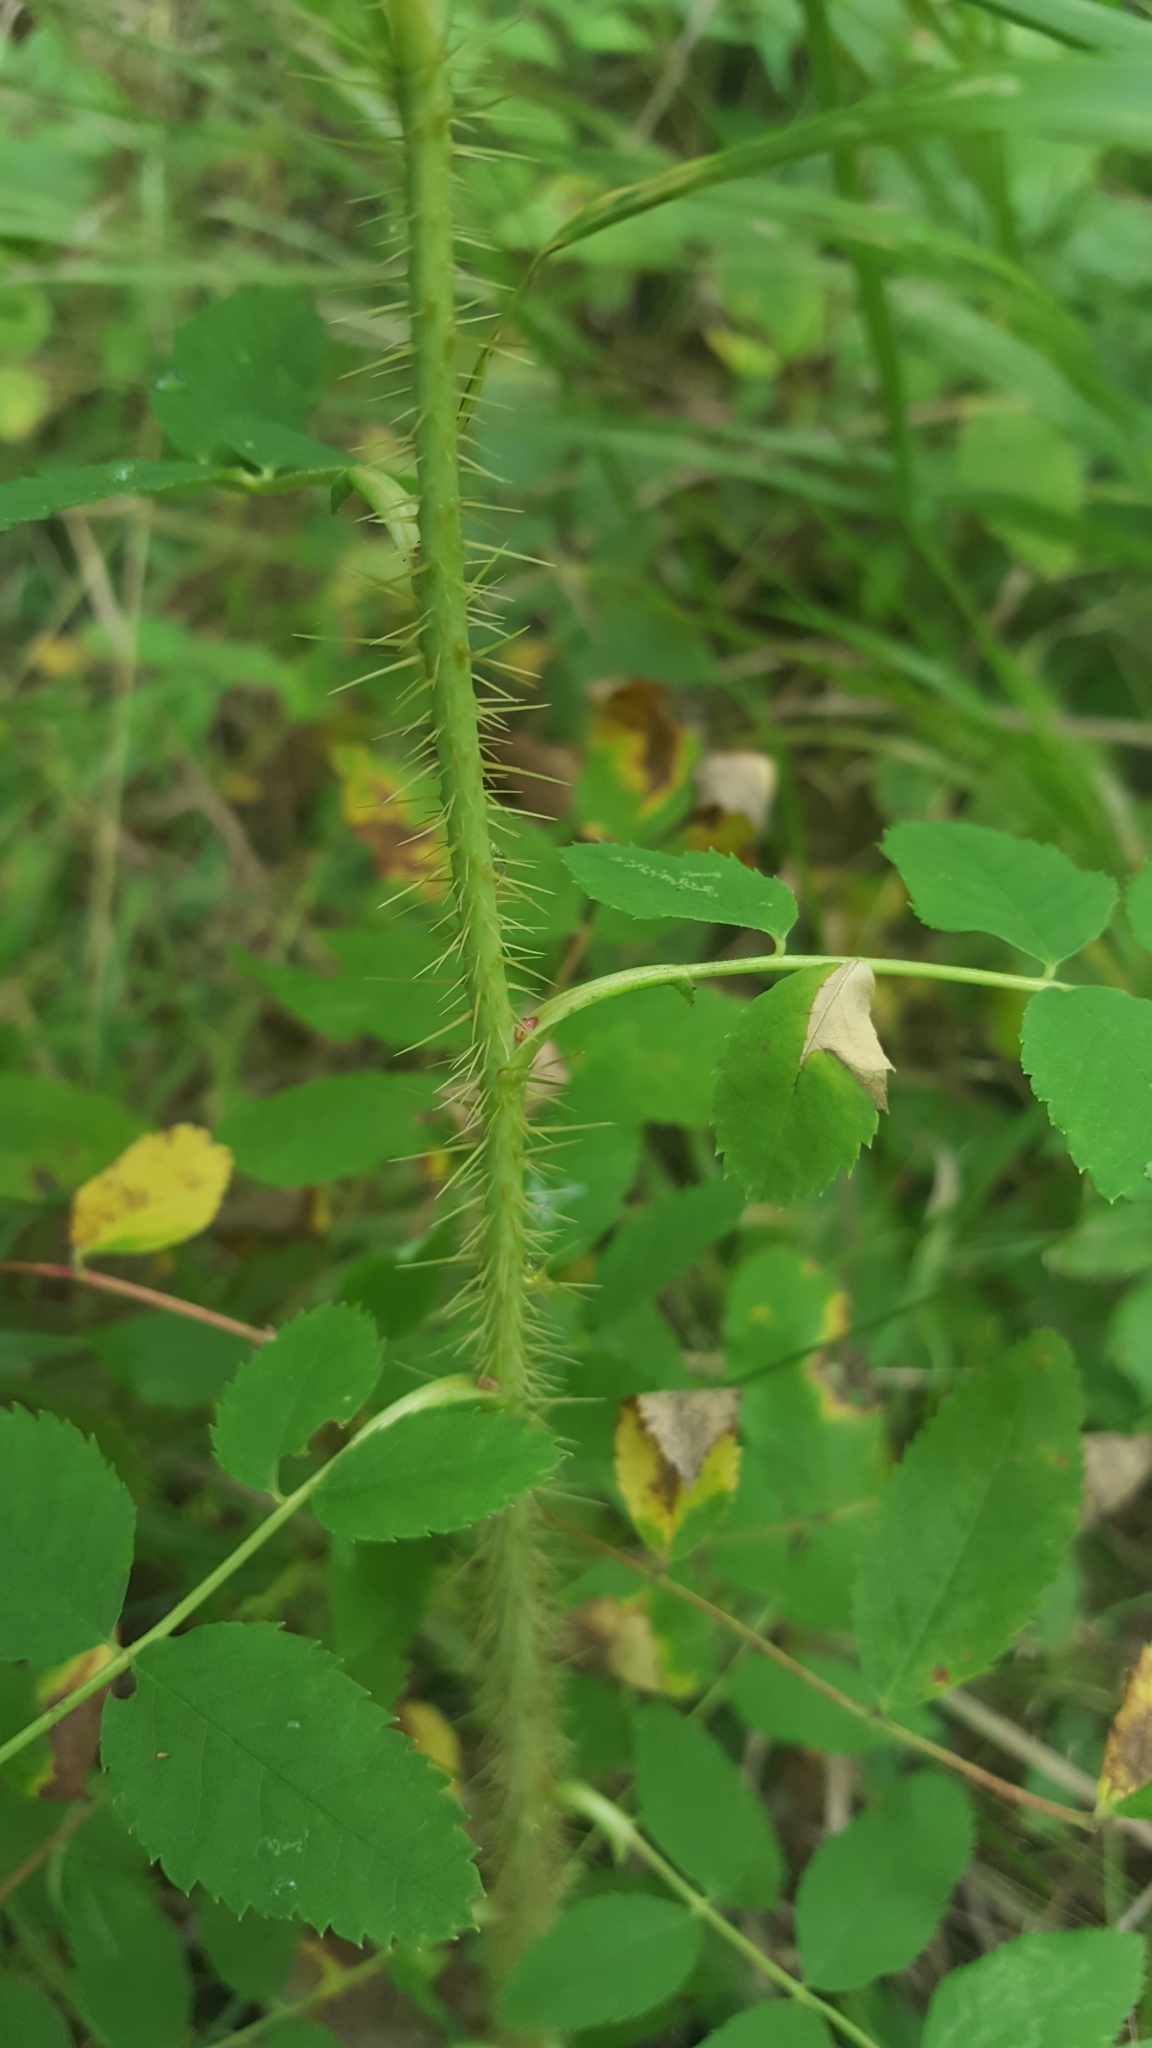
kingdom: Plantae
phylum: Tracheophyta
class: Magnoliopsida
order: Rosales
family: Rosaceae
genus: Rosa
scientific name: Rosa acicularis
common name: Prickly rose
